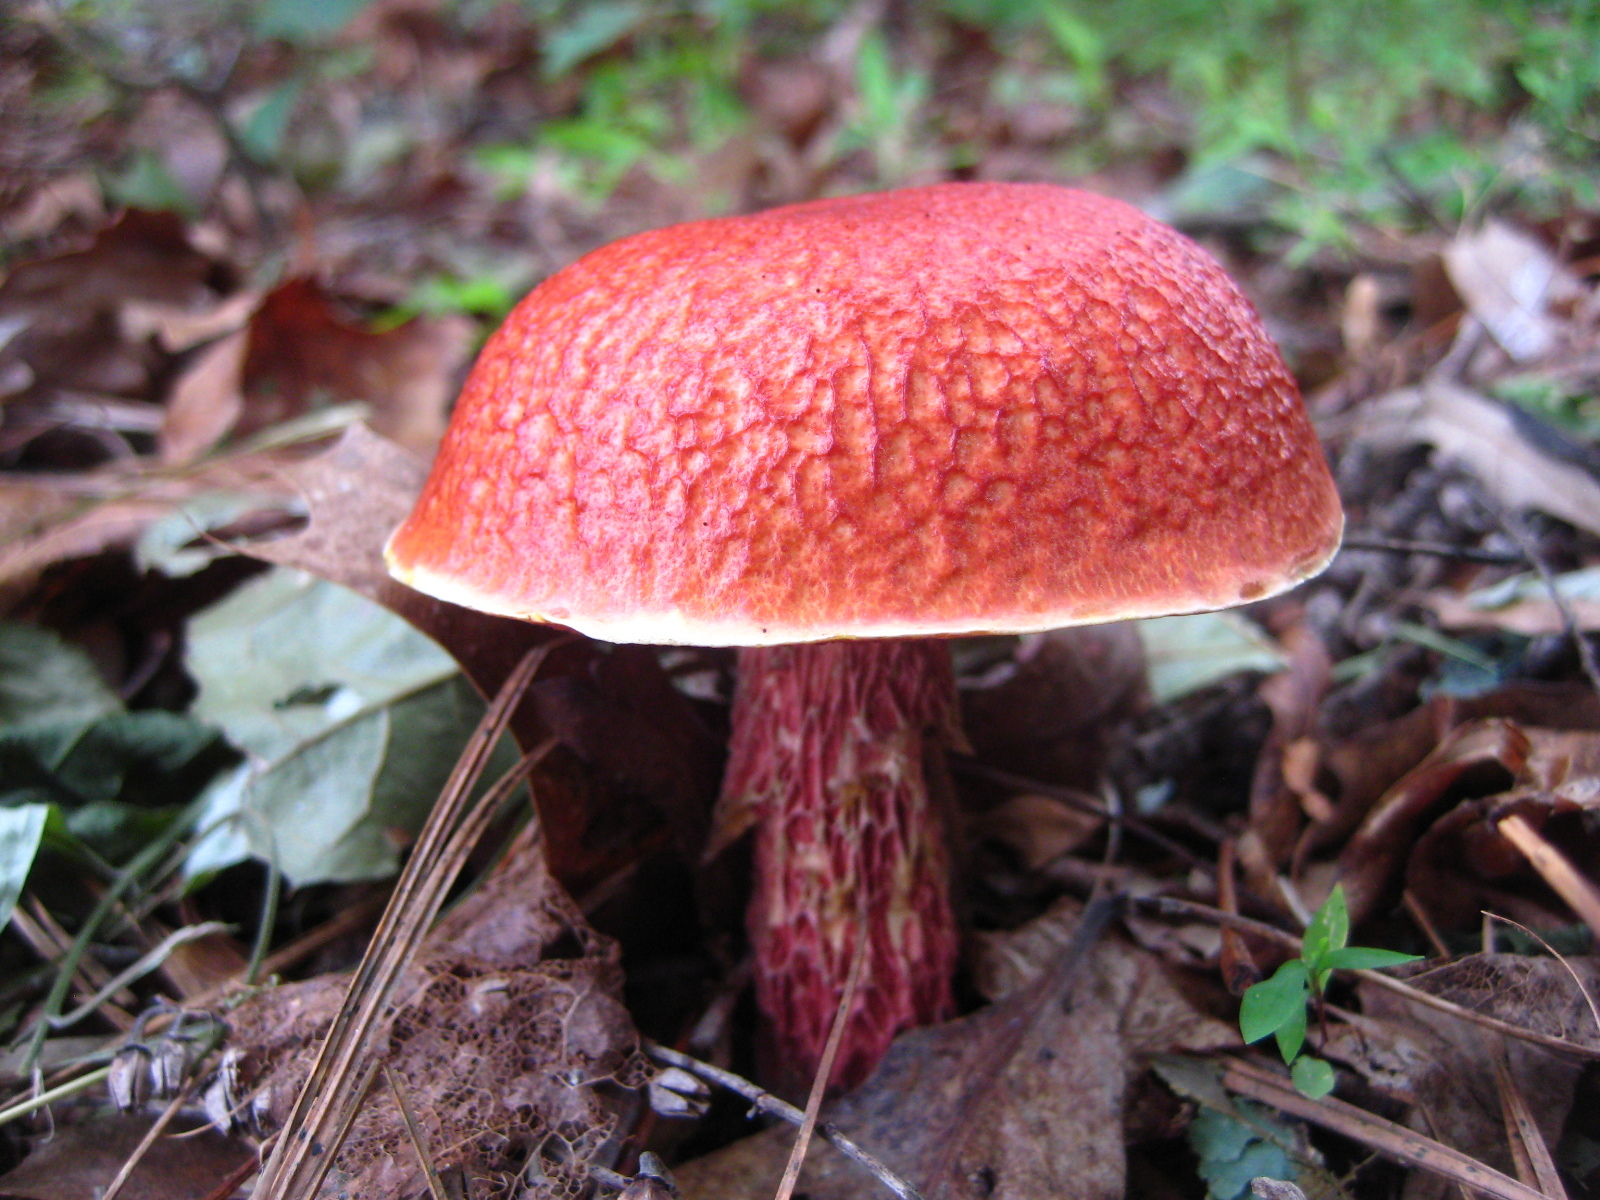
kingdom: Fungi
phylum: Basidiomycota
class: Agaricomycetes
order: Boletales
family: Boletaceae
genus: Butyriboletus
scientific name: Butyriboletus frostii
